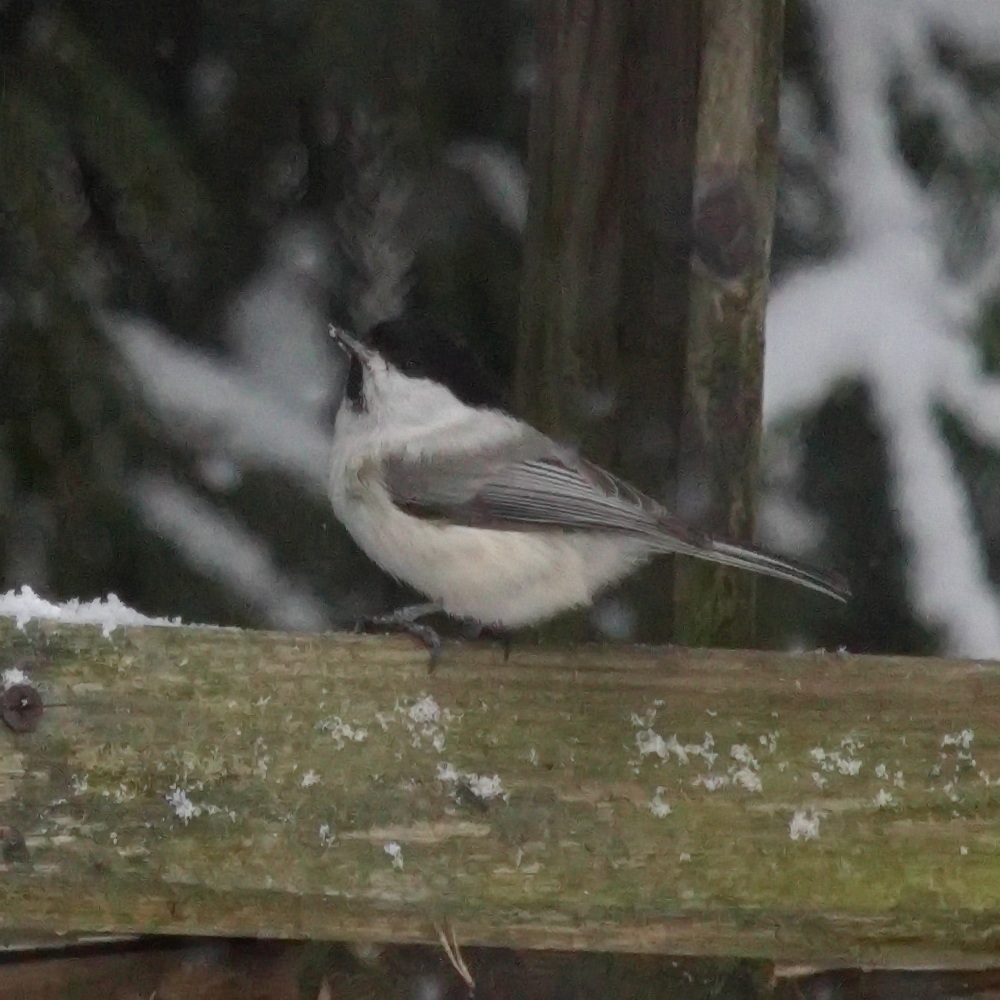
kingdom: Animalia
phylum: Chordata
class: Aves
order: Passeriformes
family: Paridae
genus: Poecile
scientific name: Poecile montanus
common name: Willow tit
